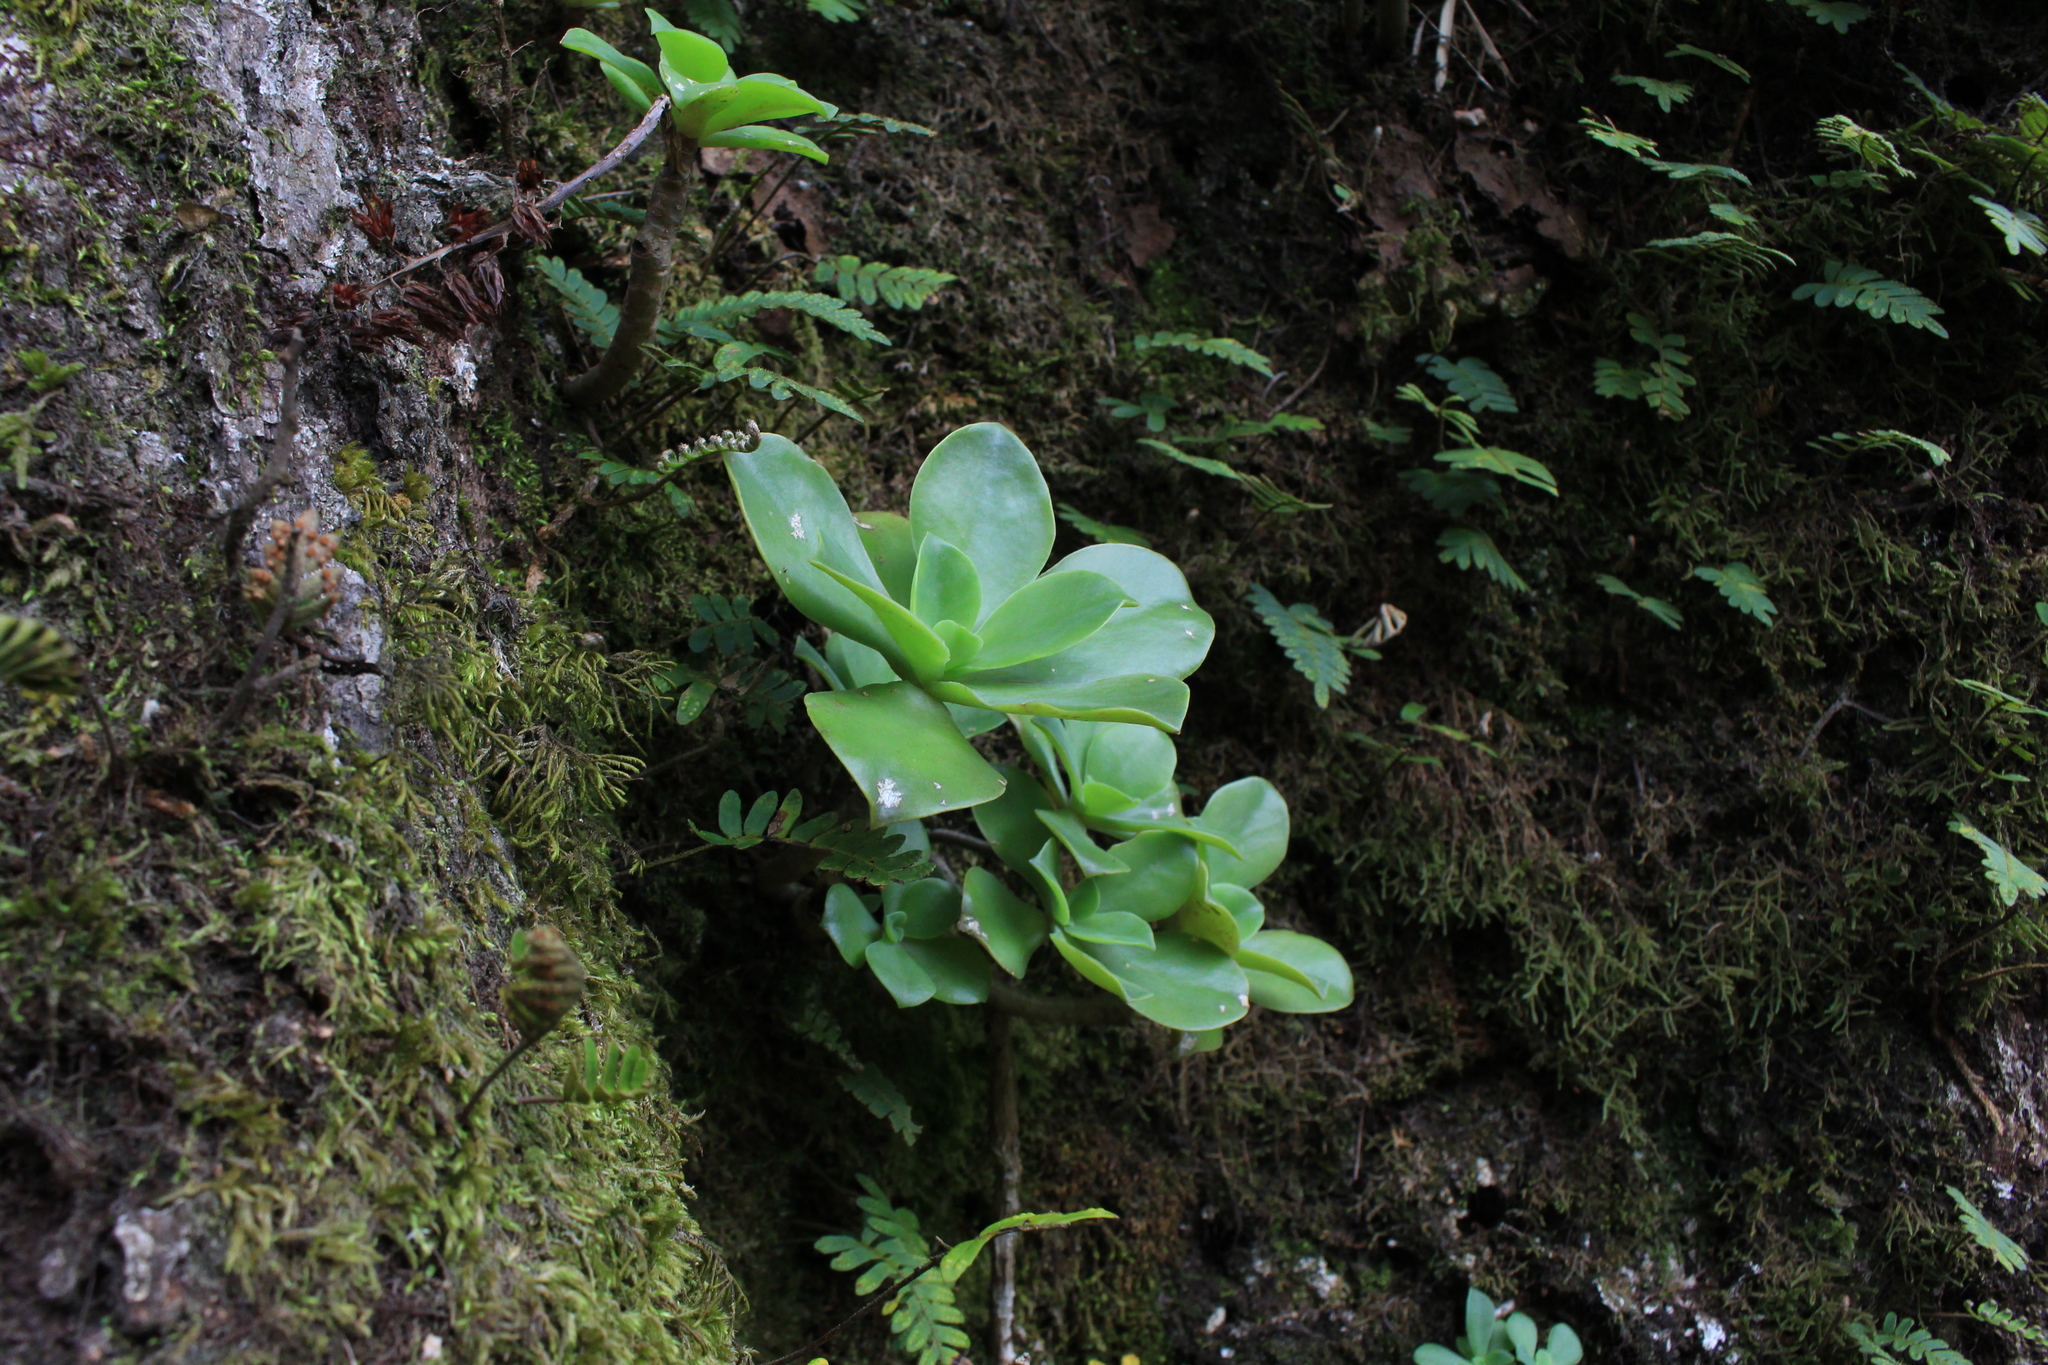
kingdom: Plantae
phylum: Tracheophyta
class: Magnoliopsida
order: Saxifragales
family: Crassulaceae
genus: Echeveria
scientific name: Echeveria australis
